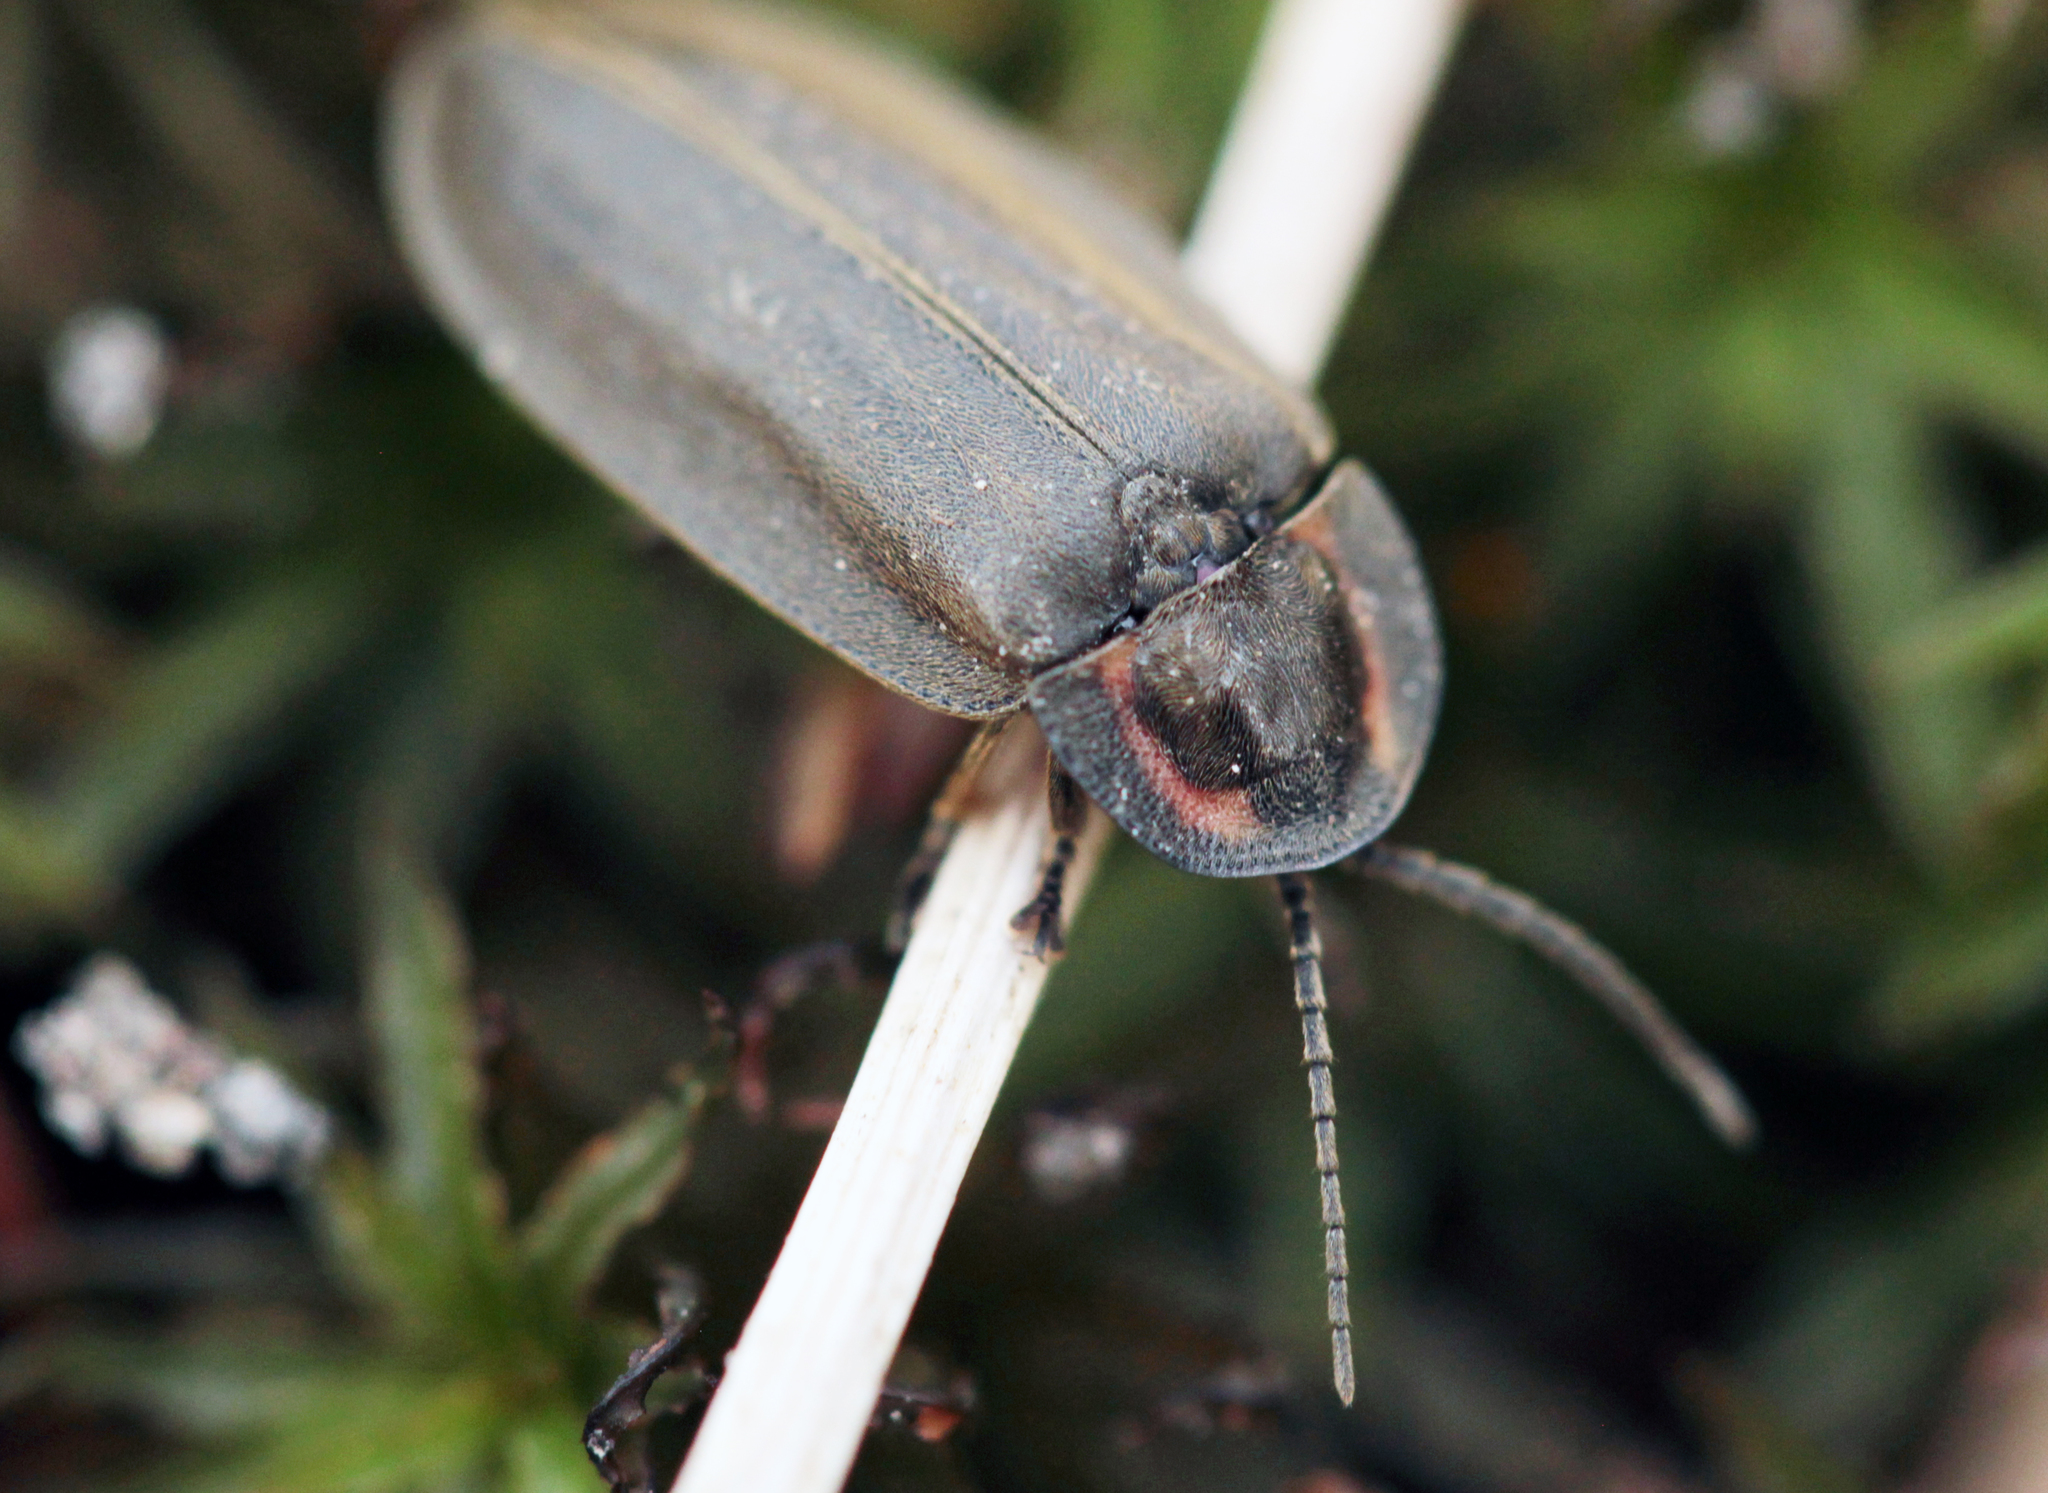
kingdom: Animalia
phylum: Arthropoda
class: Insecta
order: Coleoptera
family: Lampyridae
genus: Photinus
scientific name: Photinus corrusca
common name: Winter firefly
